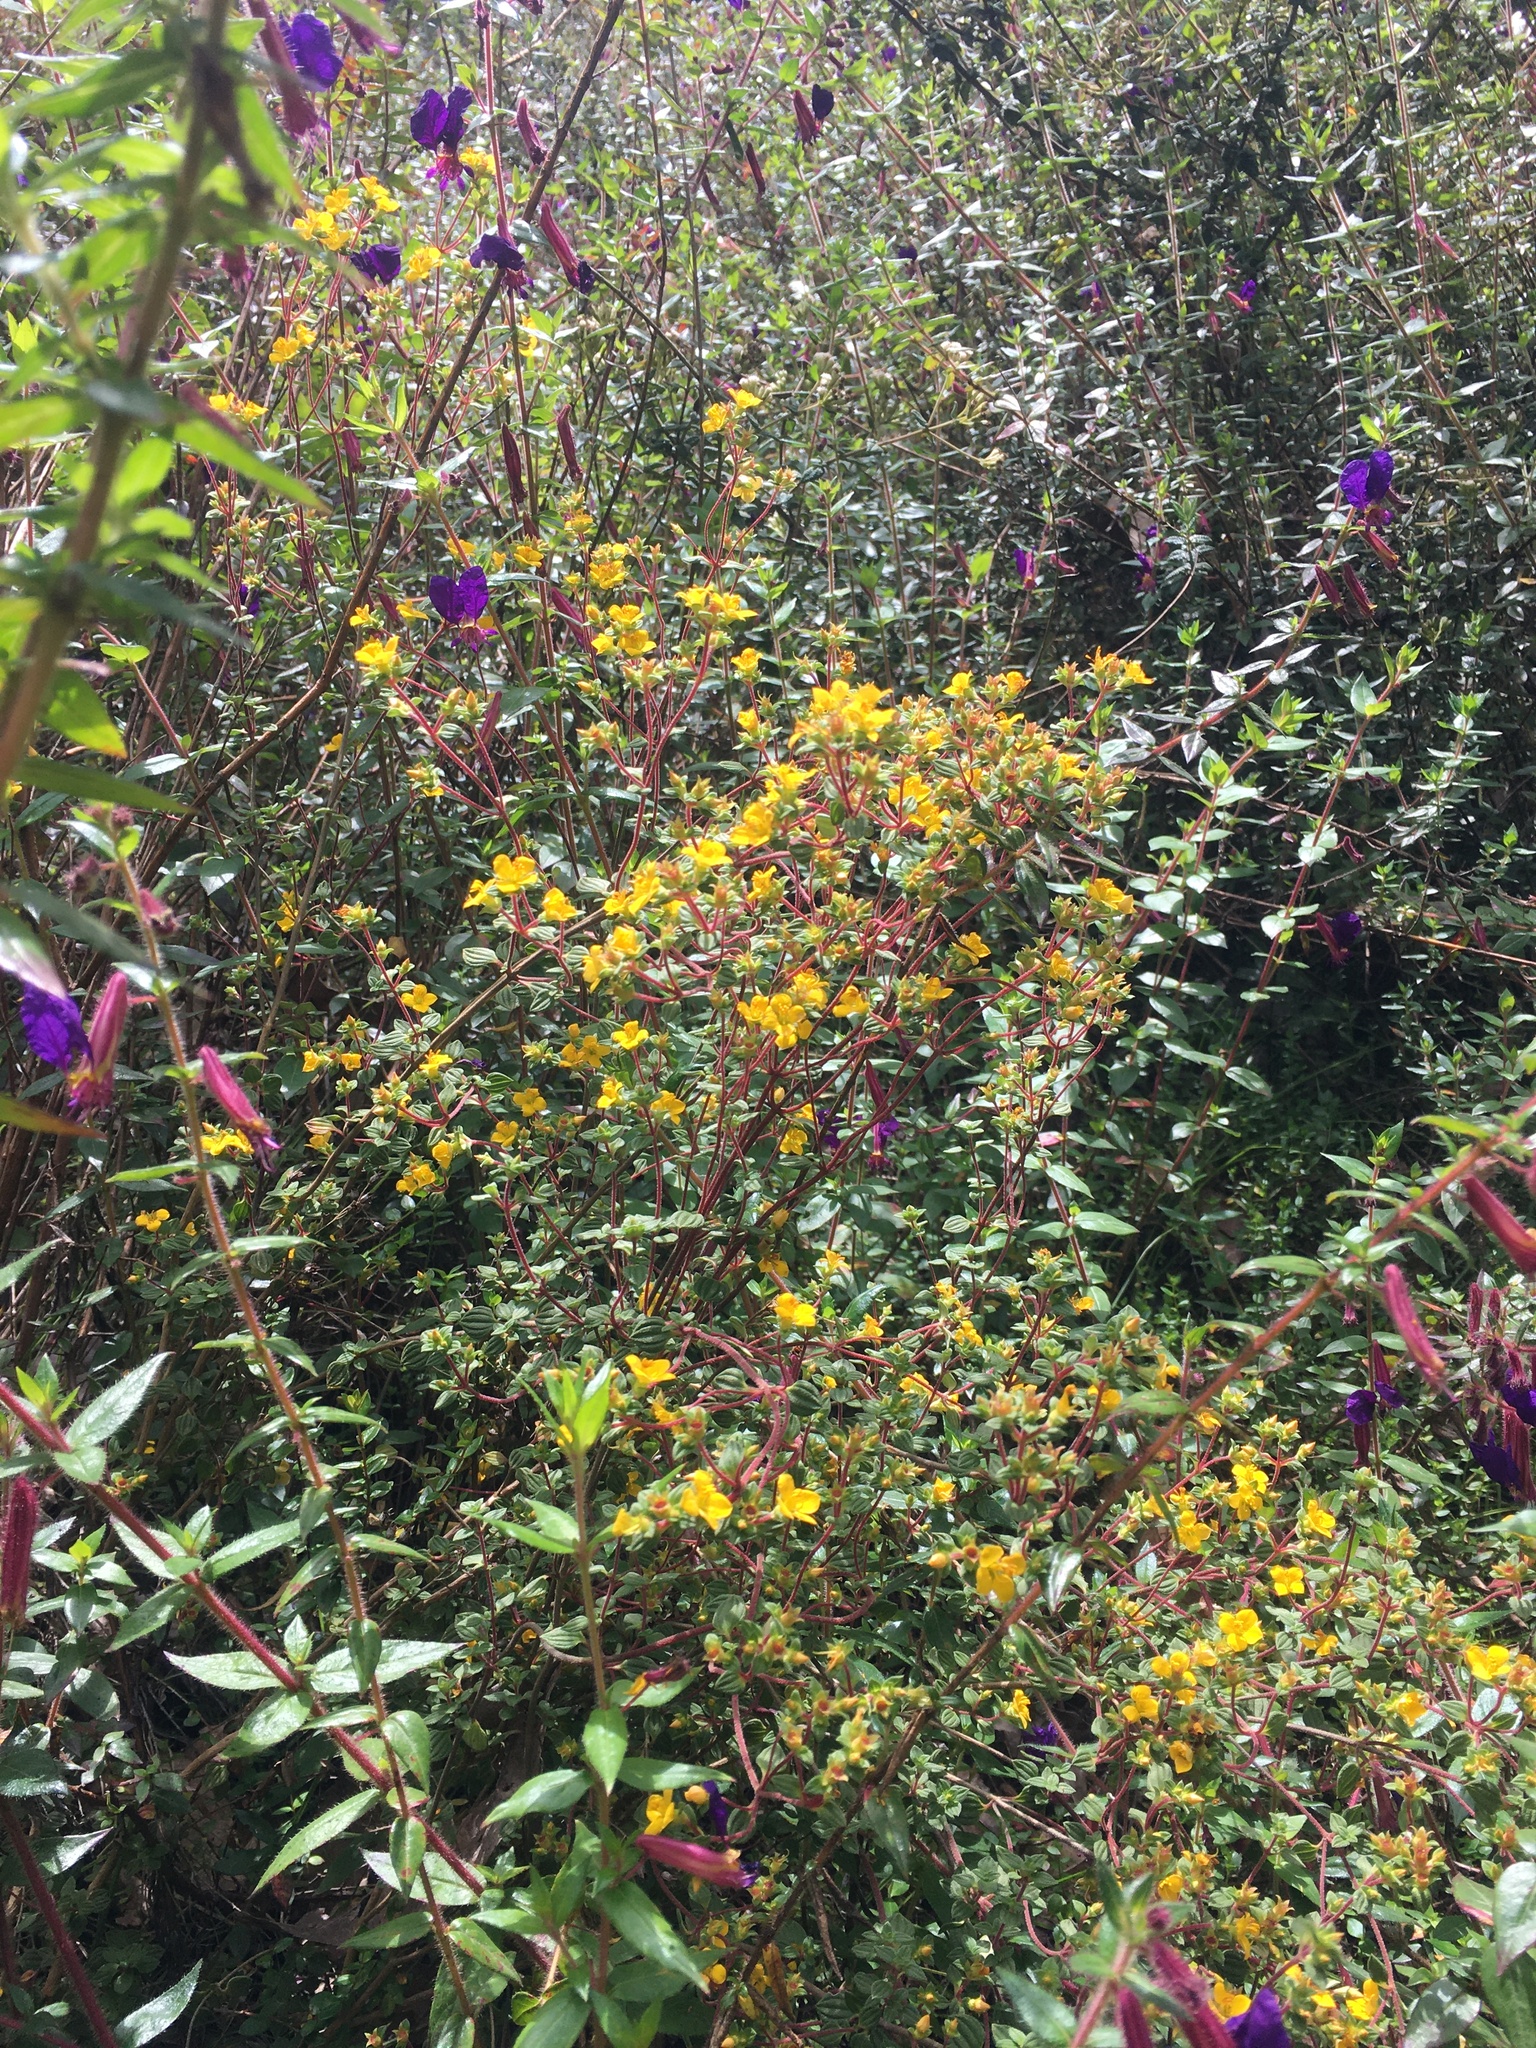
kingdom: Plantae
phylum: Tracheophyta
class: Magnoliopsida
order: Myrtales
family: Melastomataceae
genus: Chaetolepis
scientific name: Chaetolepis microphylla
